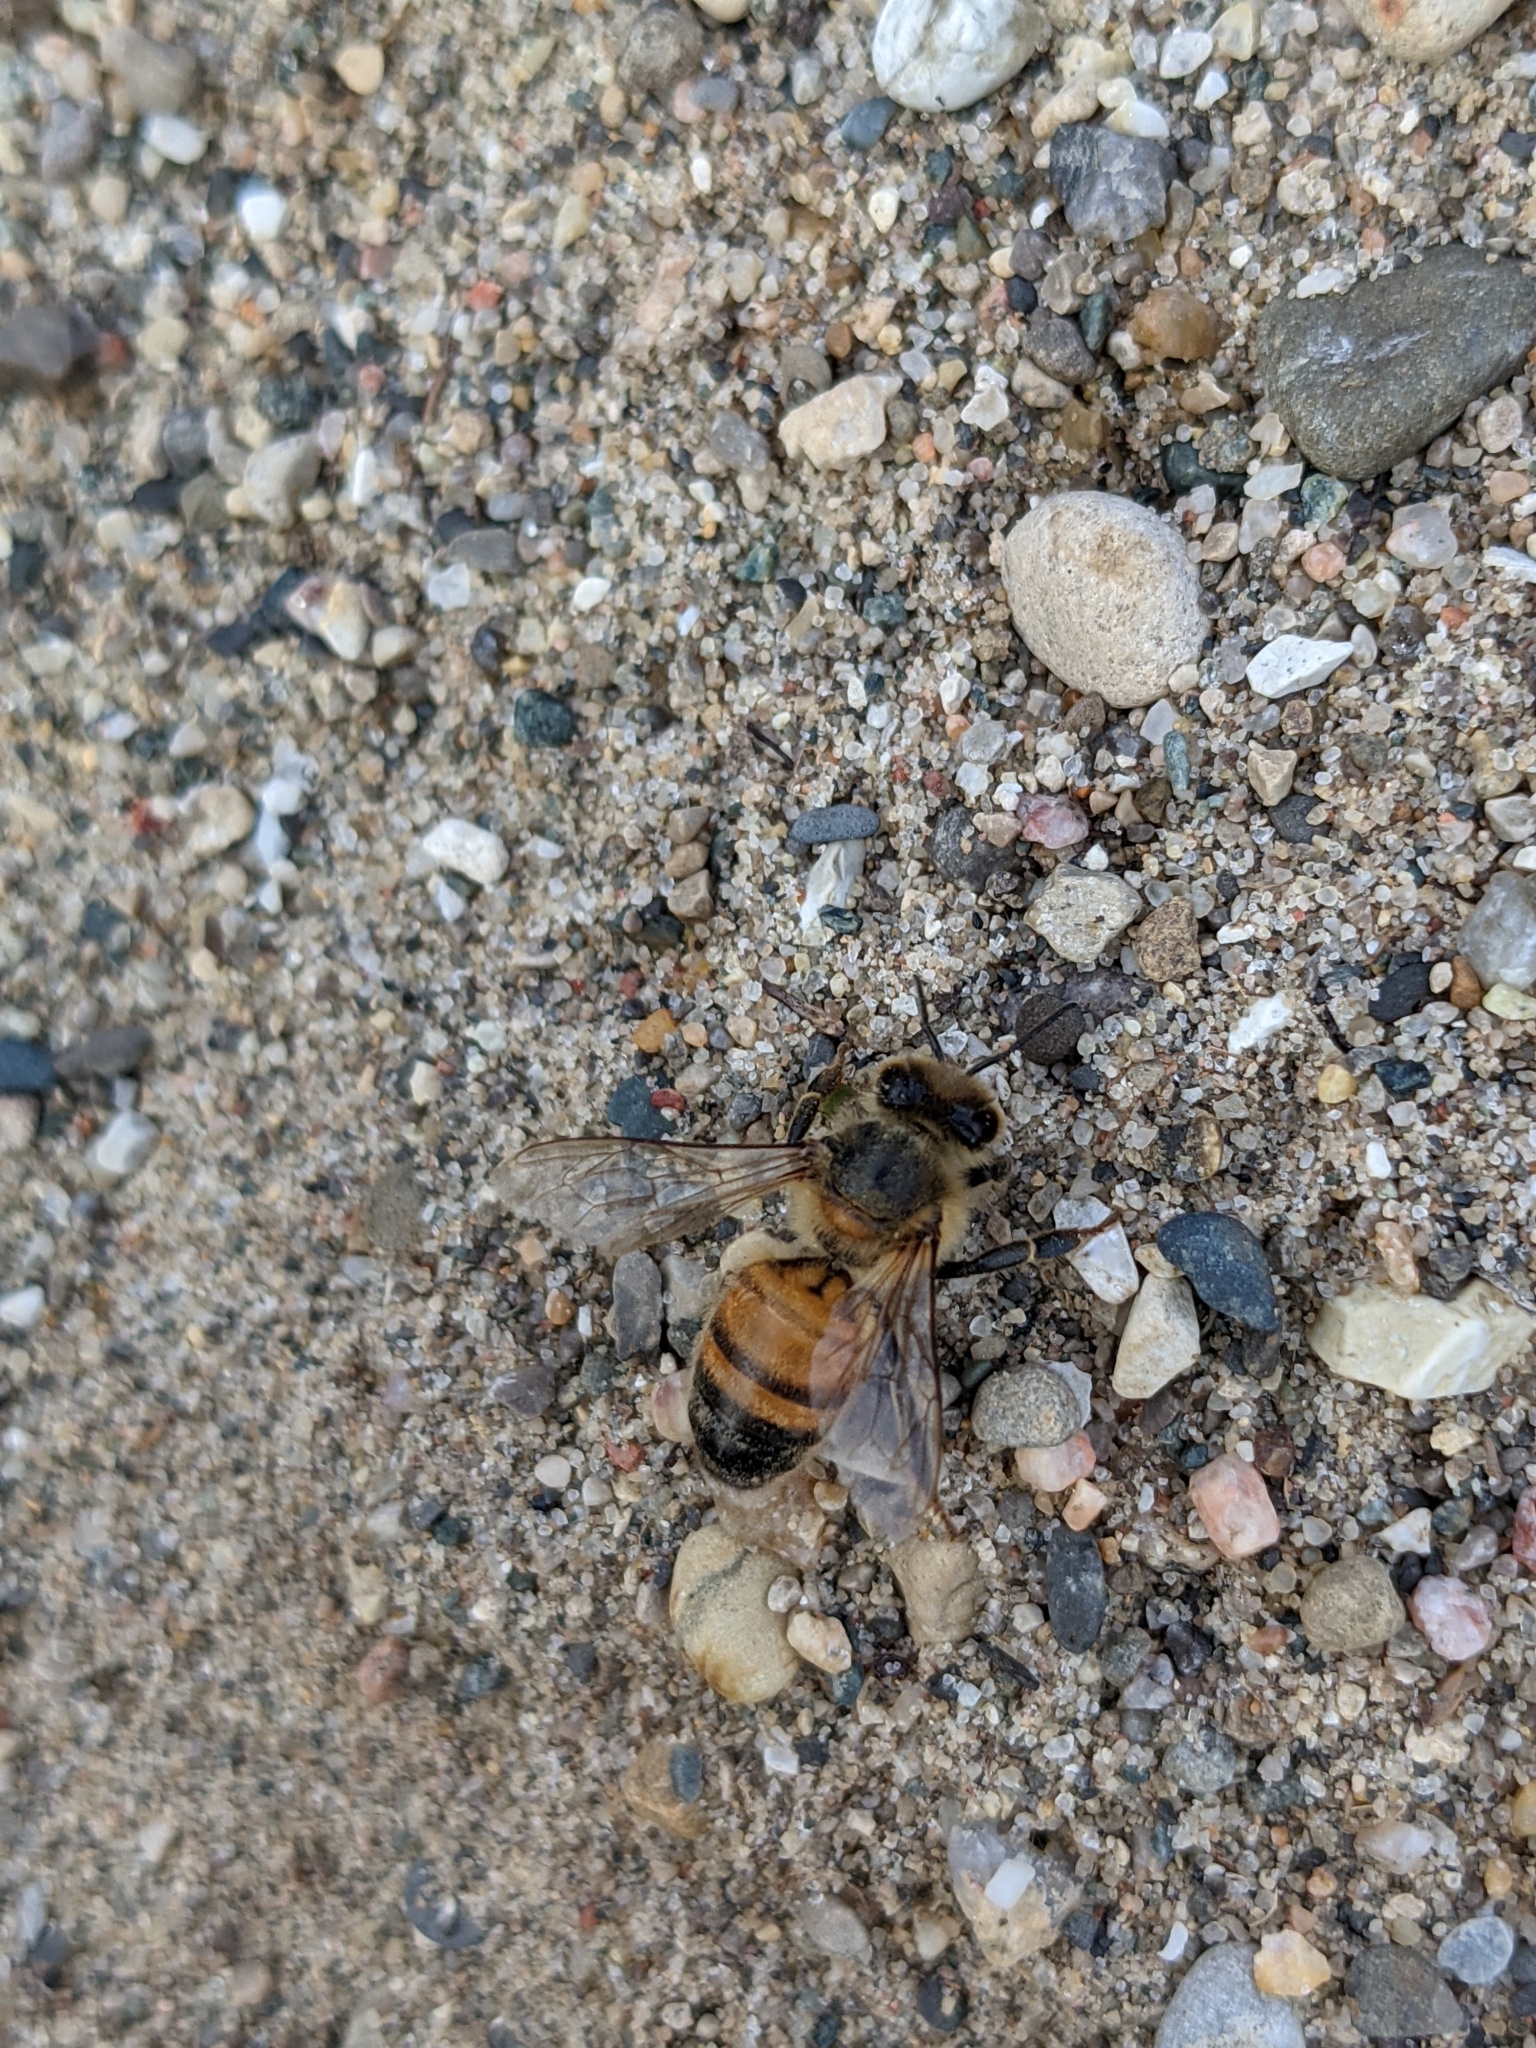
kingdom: Animalia
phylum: Arthropoda
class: Insecta
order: Hymenoptera
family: Apidae
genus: Apis
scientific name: Apis mellifera
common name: Honey bee
